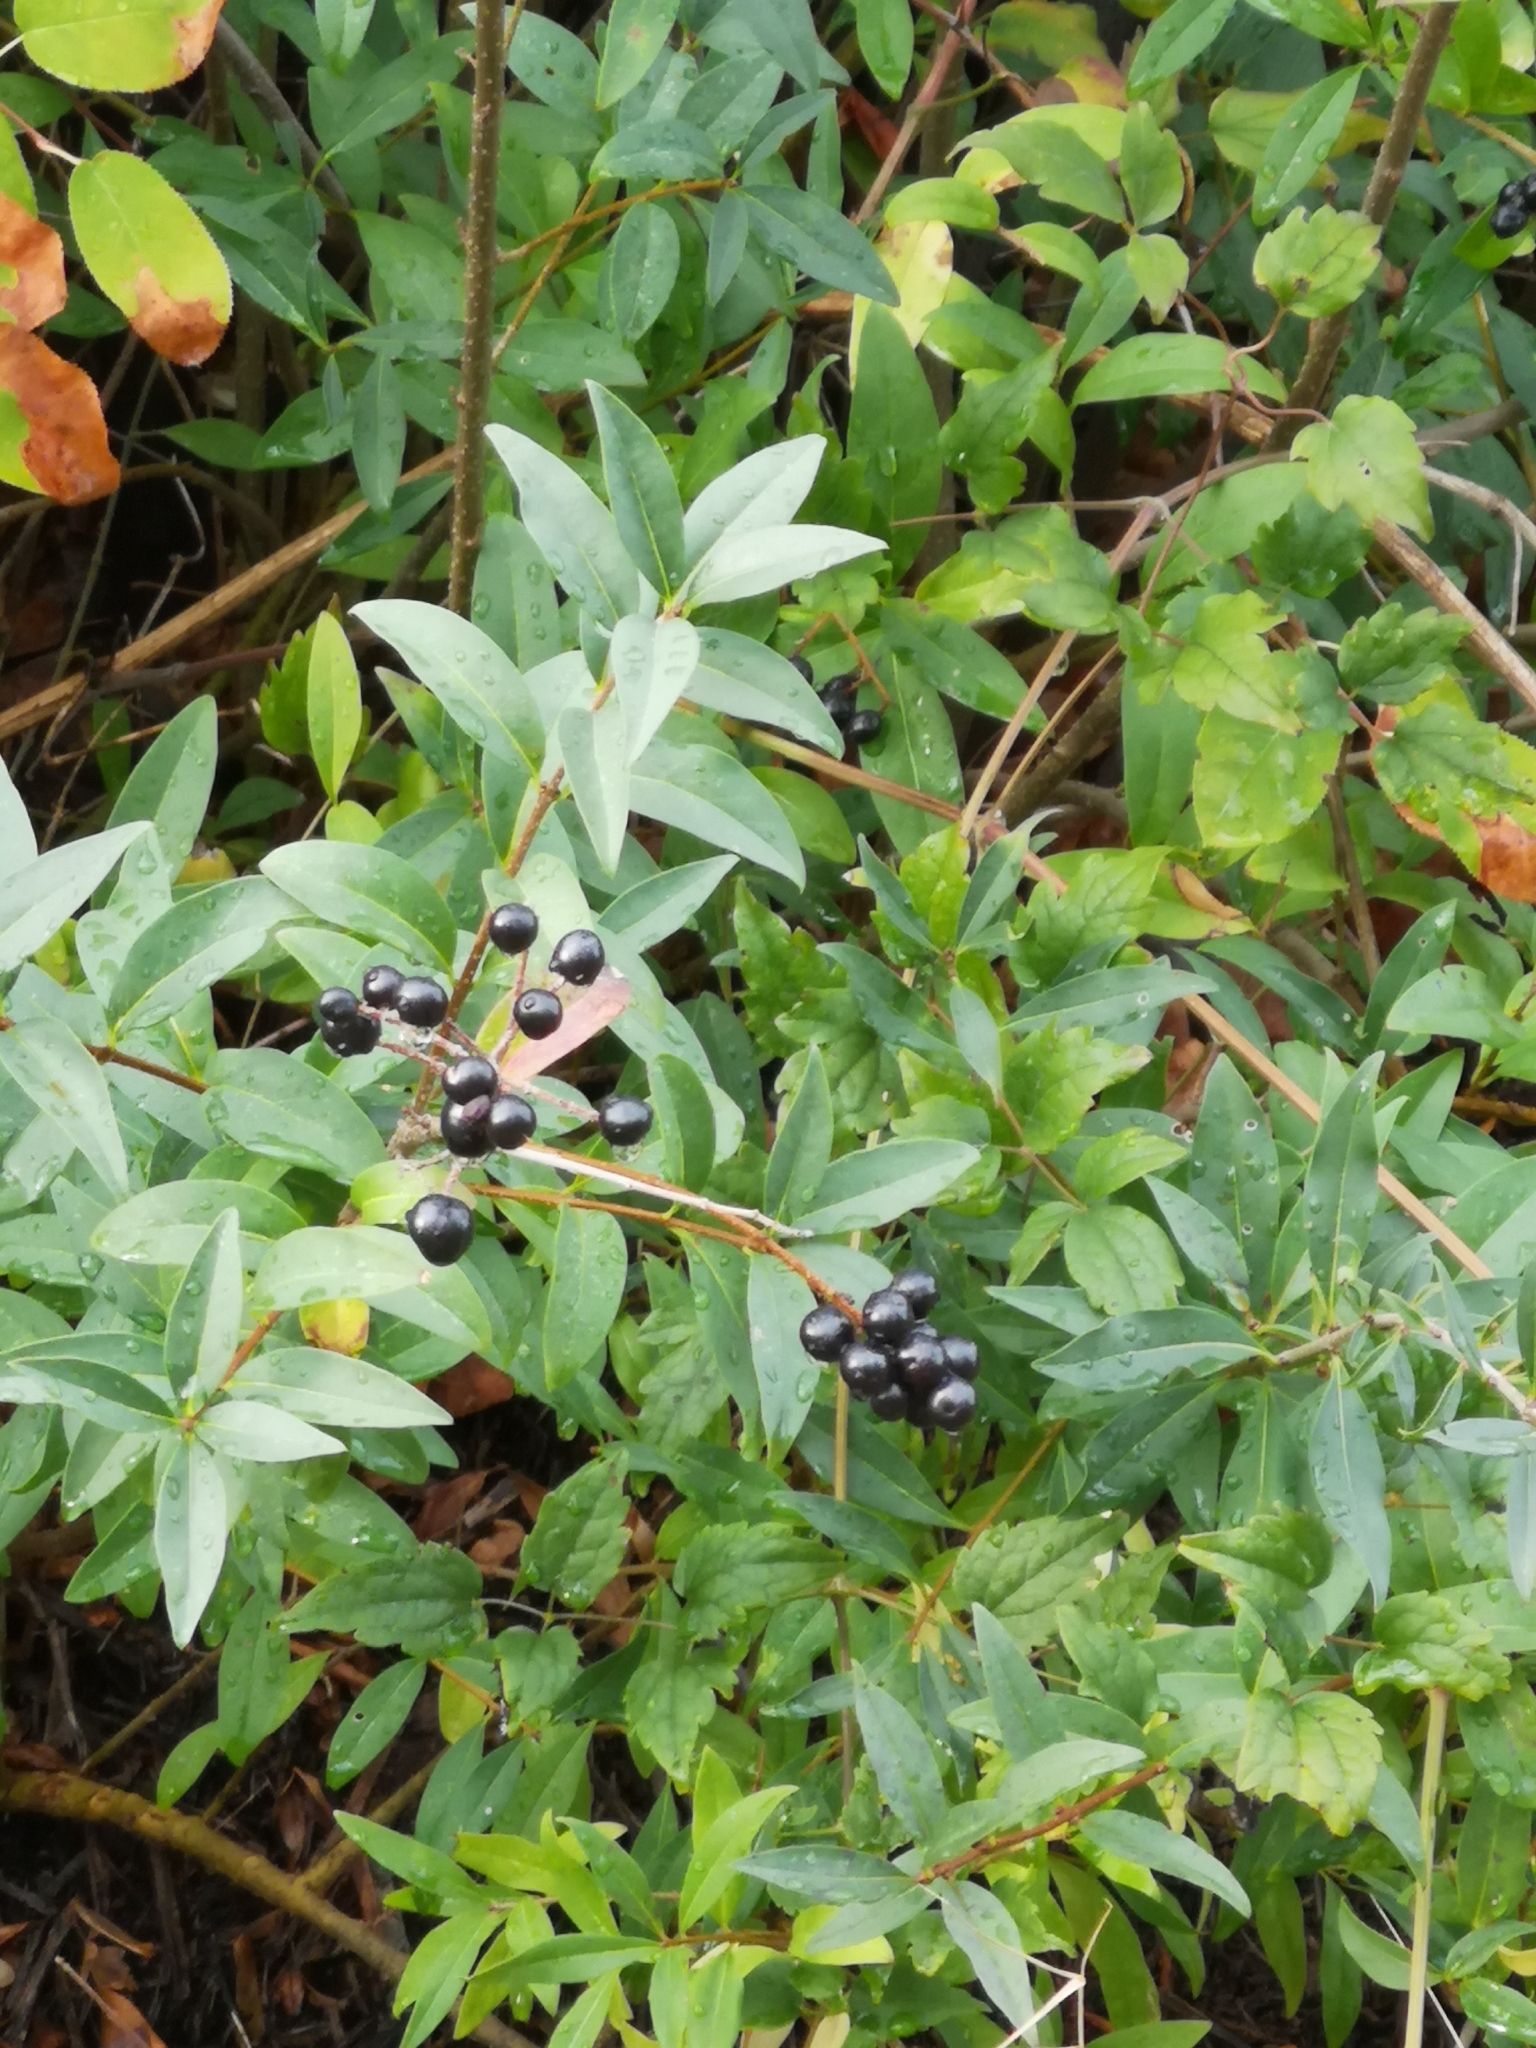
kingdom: Plantae
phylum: Tracheophyta
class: Magnoliopsida
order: Lamiales
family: Oleaceae
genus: Ligustrum
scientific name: Ligustrum vulgare
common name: Wild privet
